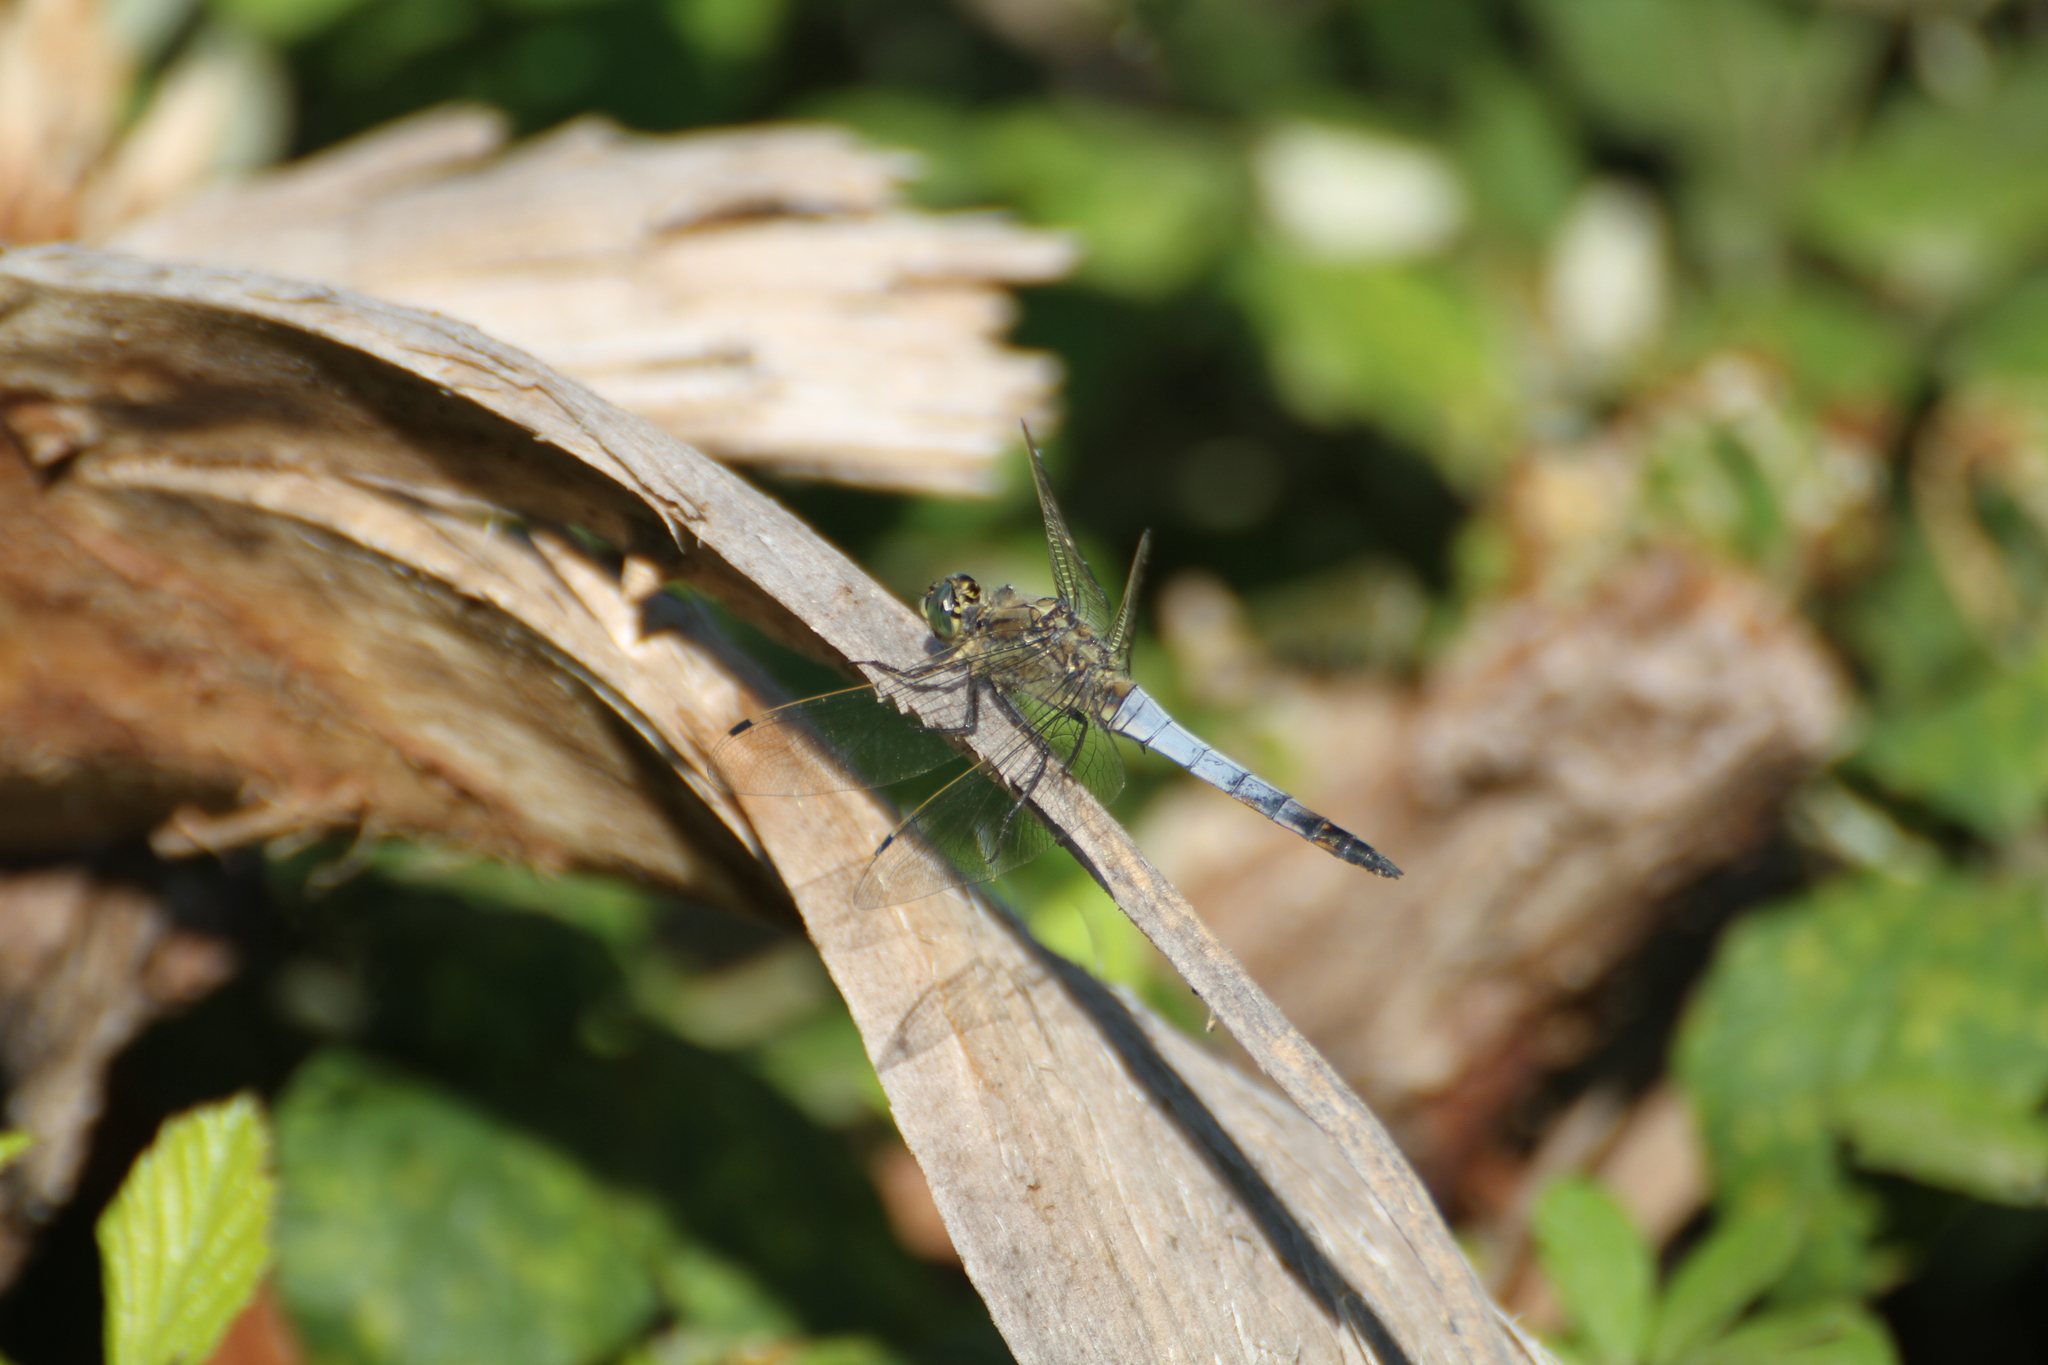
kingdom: Animalia
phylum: Arthropoda
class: Insecta
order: Odonata
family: Libellulidae
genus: Orthetrum
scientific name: Orthetrum cancellatum
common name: Black-tailed skimmer
